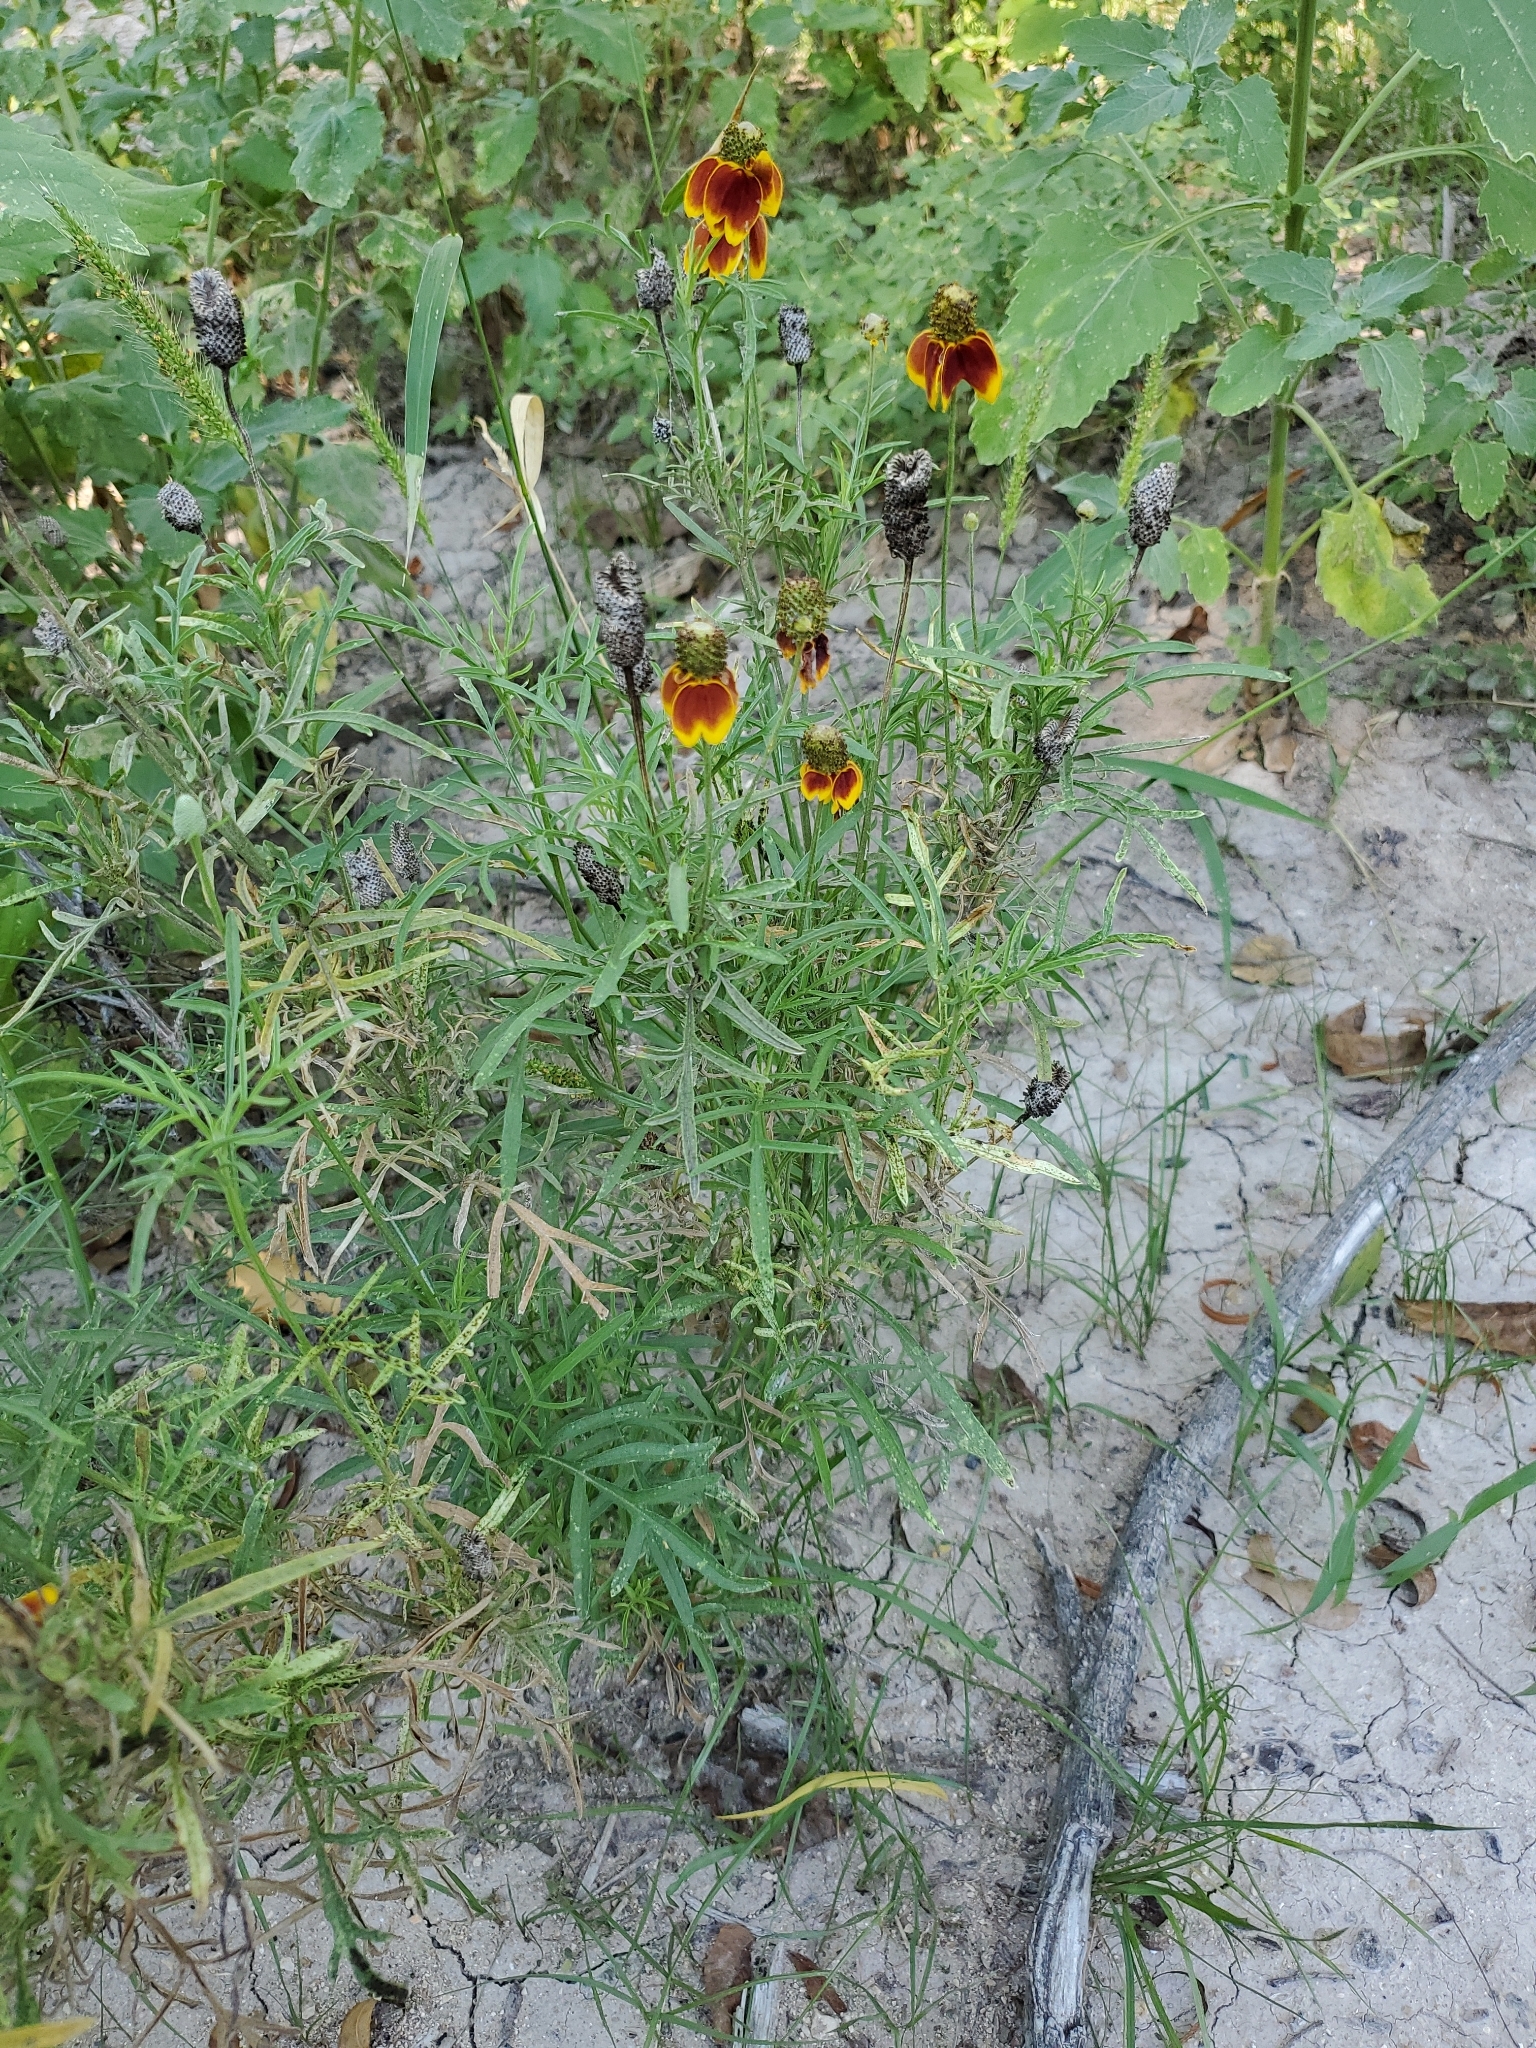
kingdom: Plantae
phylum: Tracheophyta
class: Magnoliopsida
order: Asterales
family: Asteraceae
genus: Ratibida
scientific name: Ratibida columnifera
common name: Prairie coneflower
